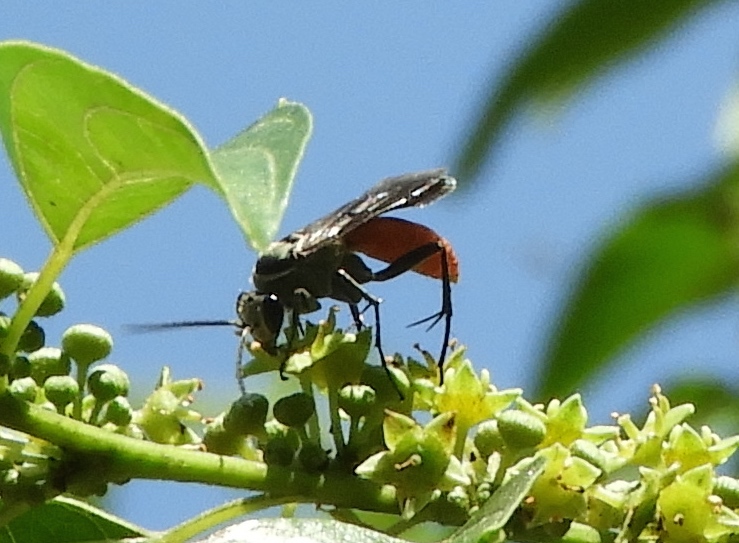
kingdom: Animalia
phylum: Arthropoda
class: Insecta
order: Hymenoptera
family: Pompilidae
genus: Xerochares
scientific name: Xerochares expulsus
